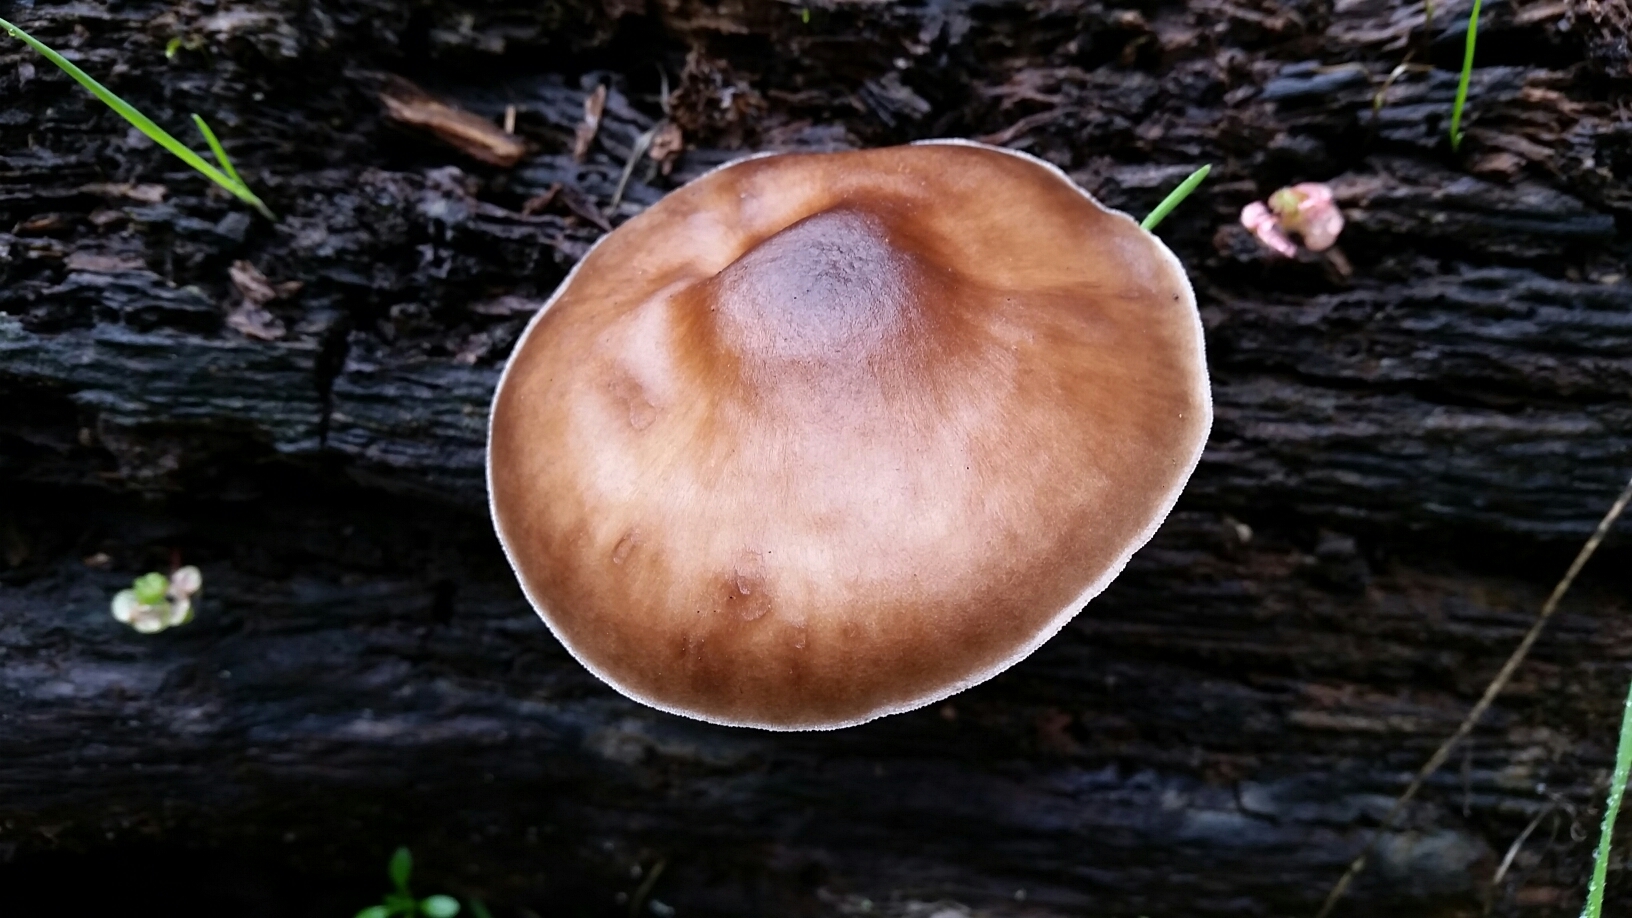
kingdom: Fungi
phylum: Basidiomycota
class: Agaricomycetes
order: Agaricales
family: Pluteaceae
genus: Pluteus
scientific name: Pluteus exilis
